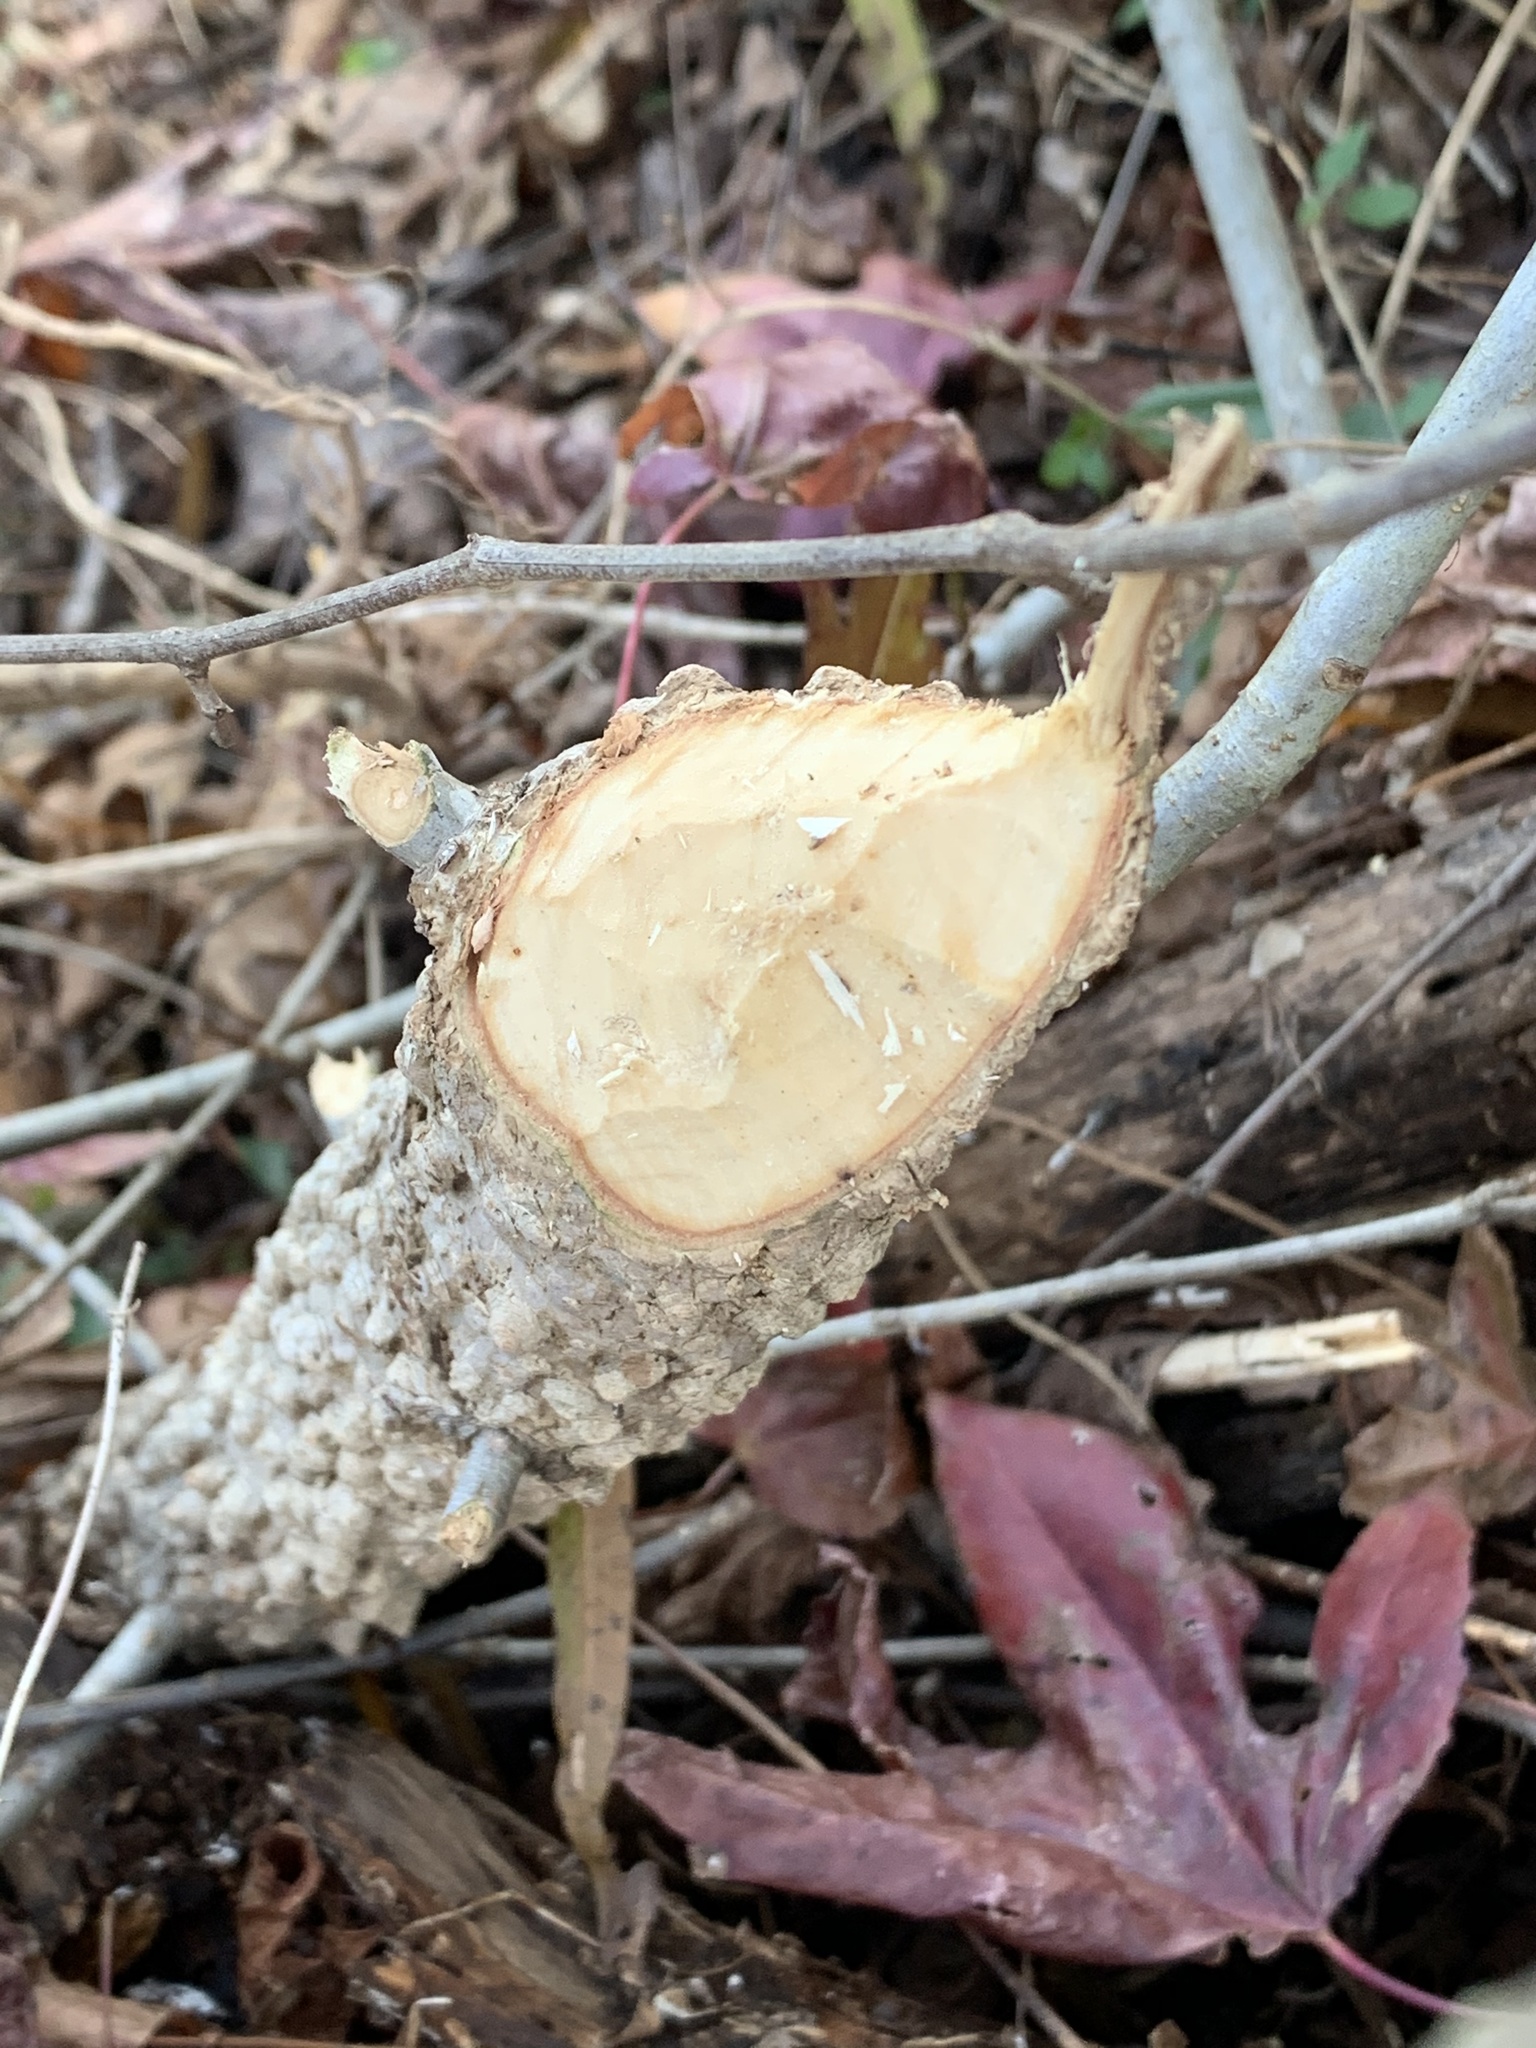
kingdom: Animalia
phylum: Chordata
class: Mammalia
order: Rodentia
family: Castoridae
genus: Castor
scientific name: Castor canadensis
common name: American beaver
